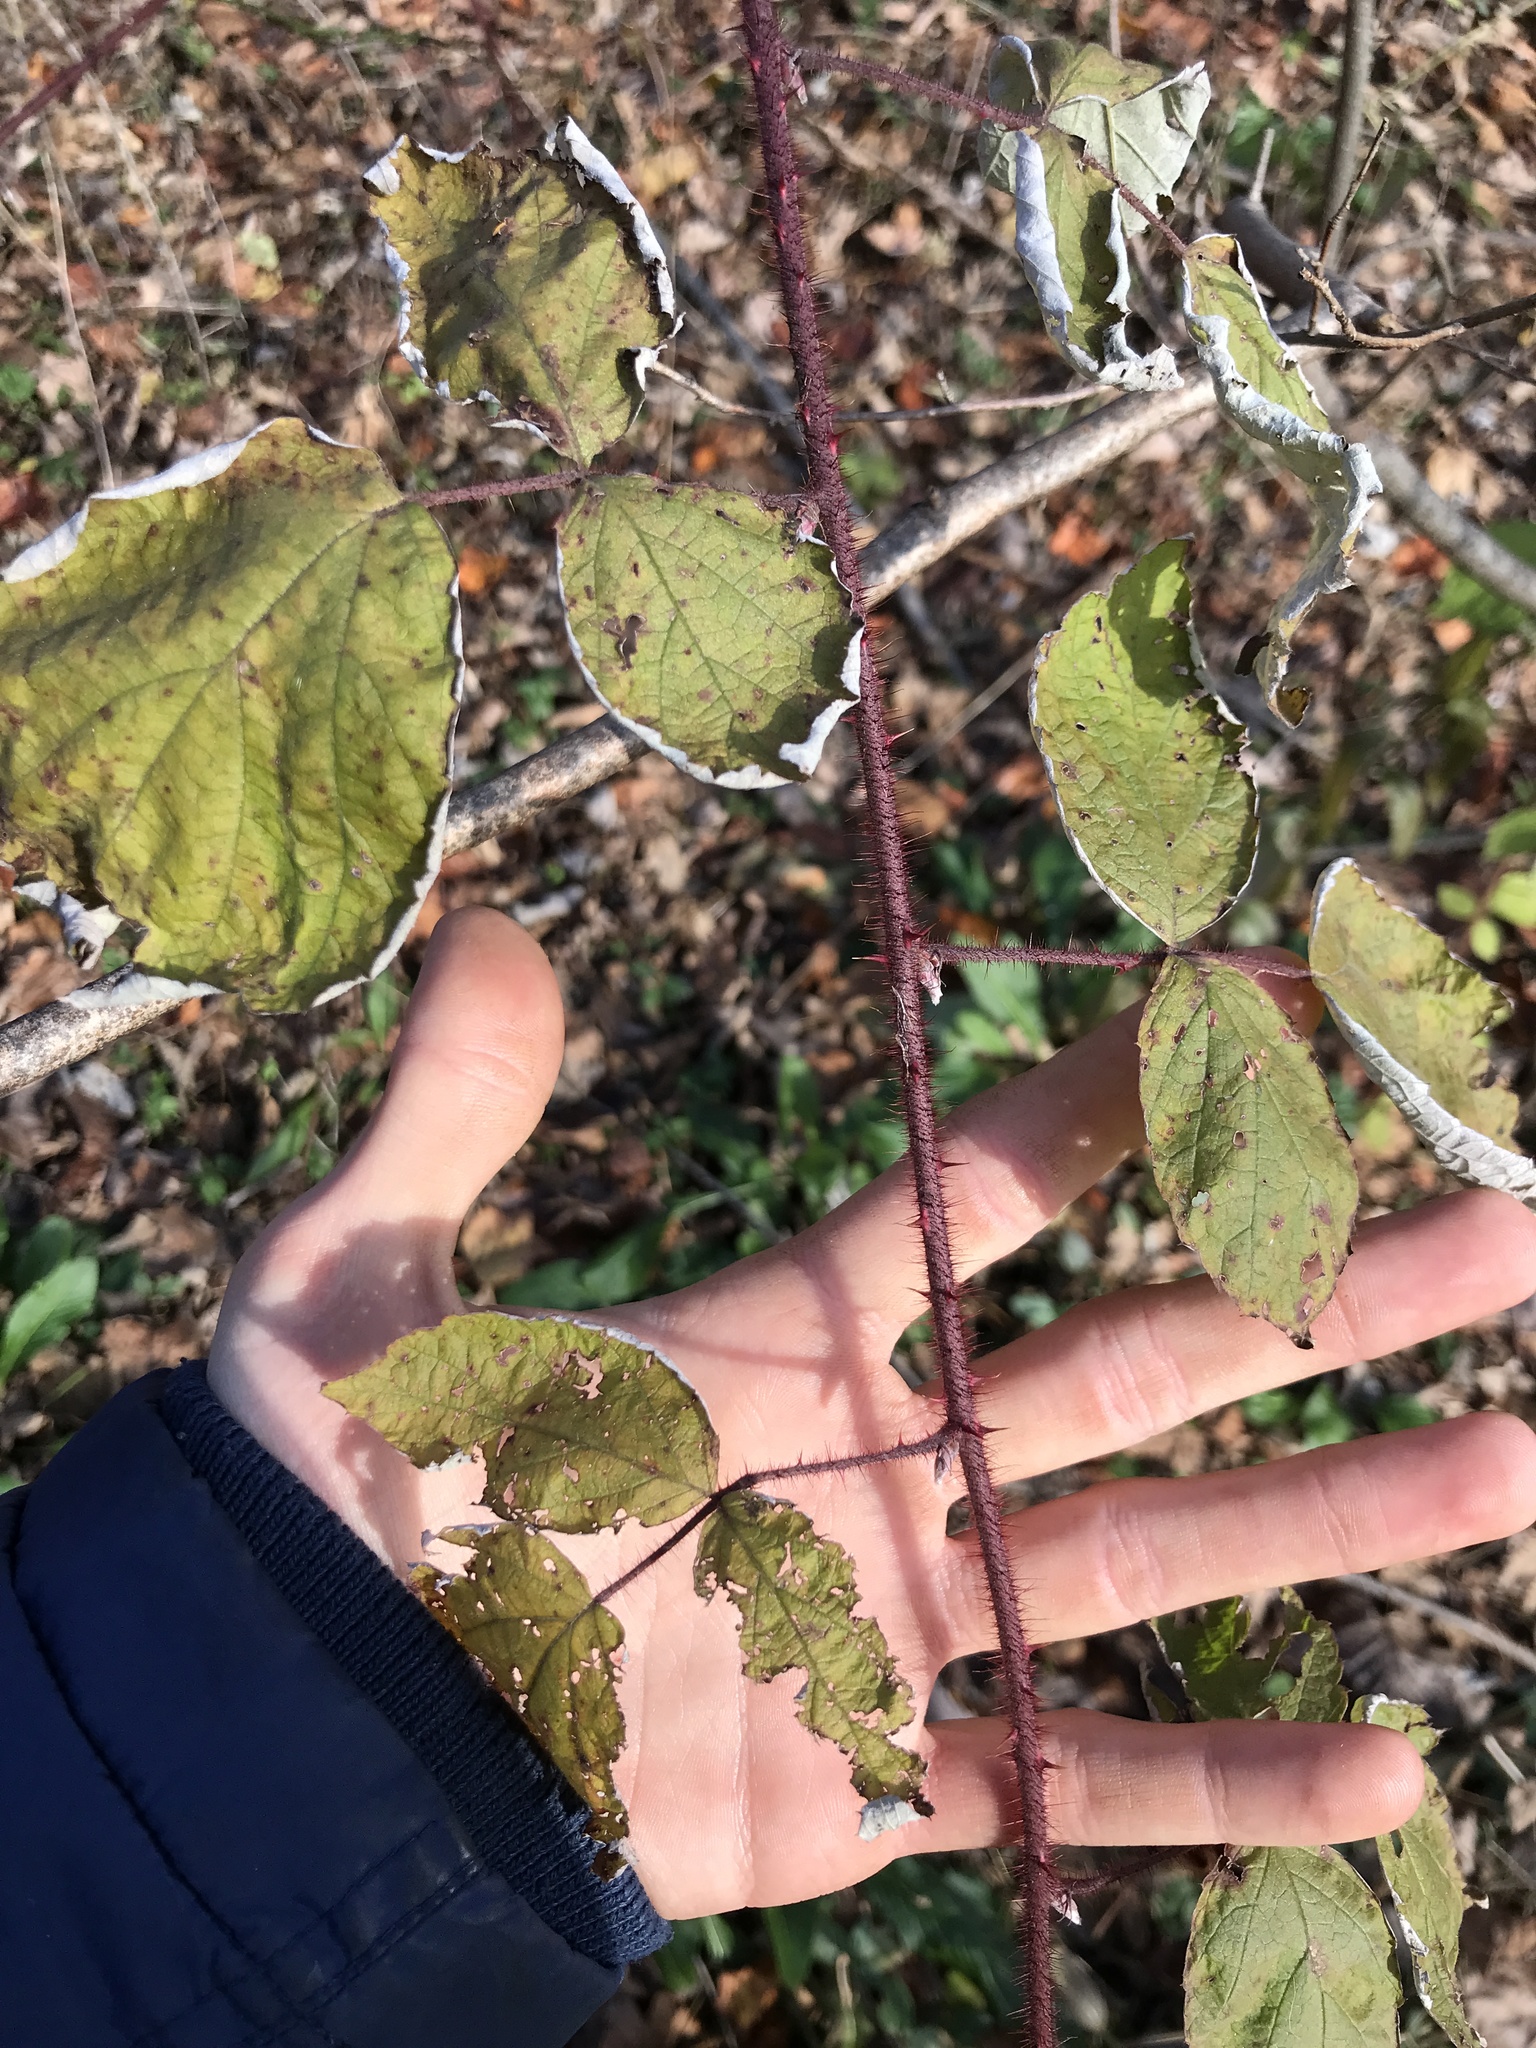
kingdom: Plantae
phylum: Tracheophyta
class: Magnoliopsida
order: Rosales
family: Rosaceae
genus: Rubus
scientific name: Rubus phoenicolasius
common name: Japanese wineberry
